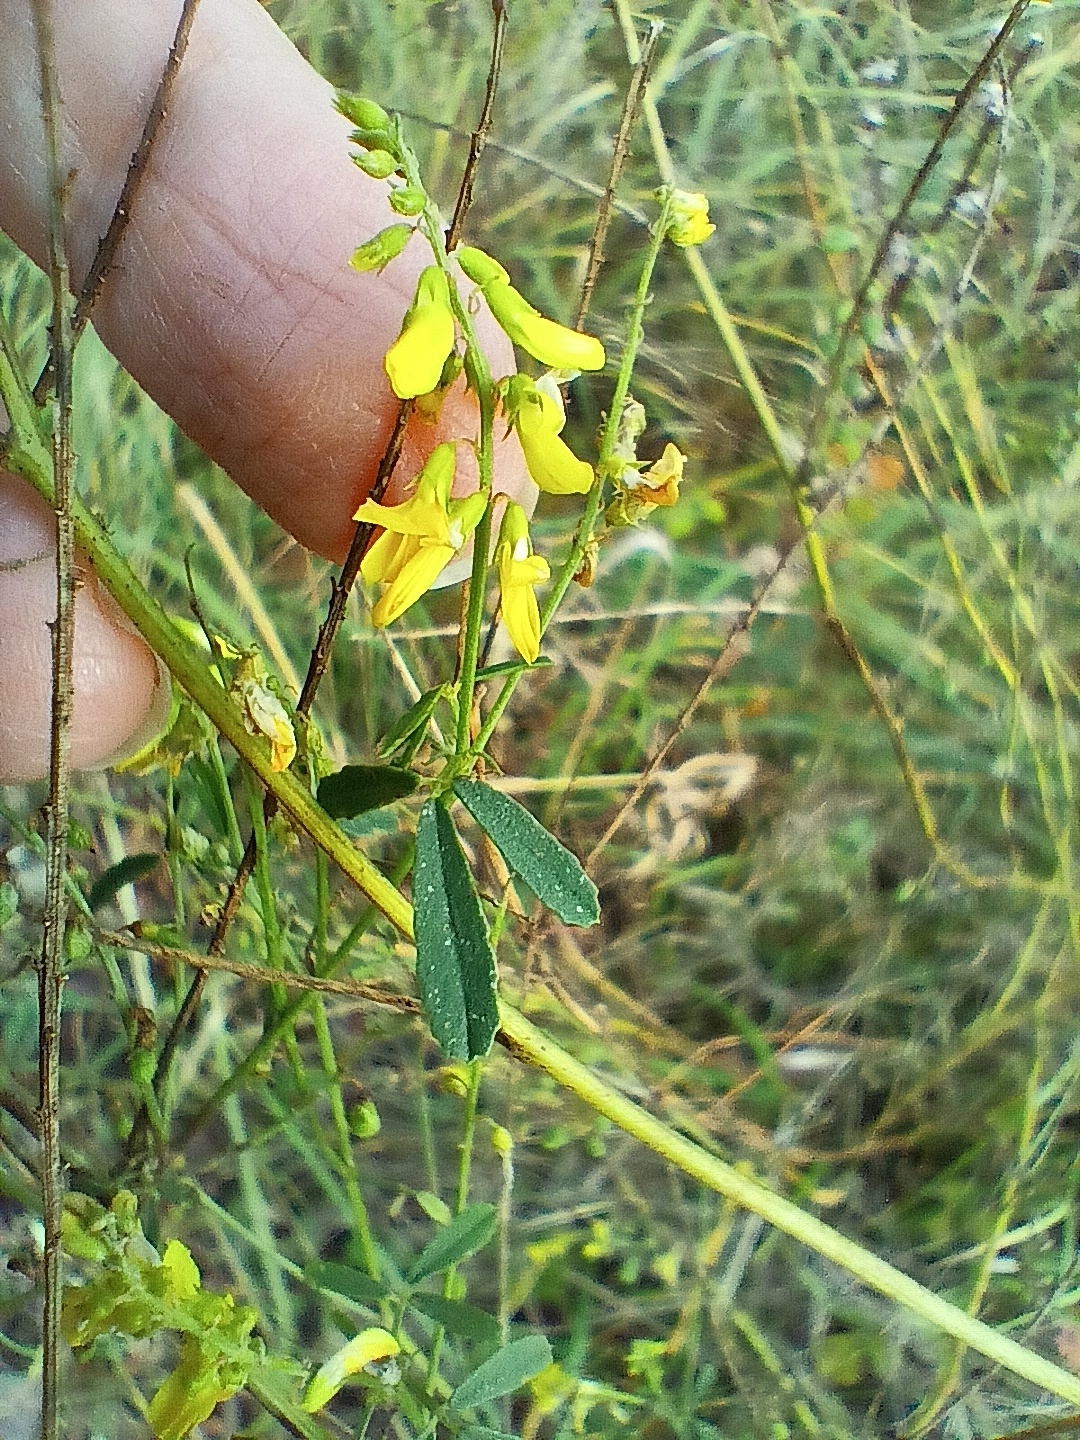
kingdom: Plantae
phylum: Tracheophyta
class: Magnoliopsida
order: Fabales
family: Fabaceae
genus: Melilotus
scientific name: Melilotus officinalis
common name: Sweetclover
